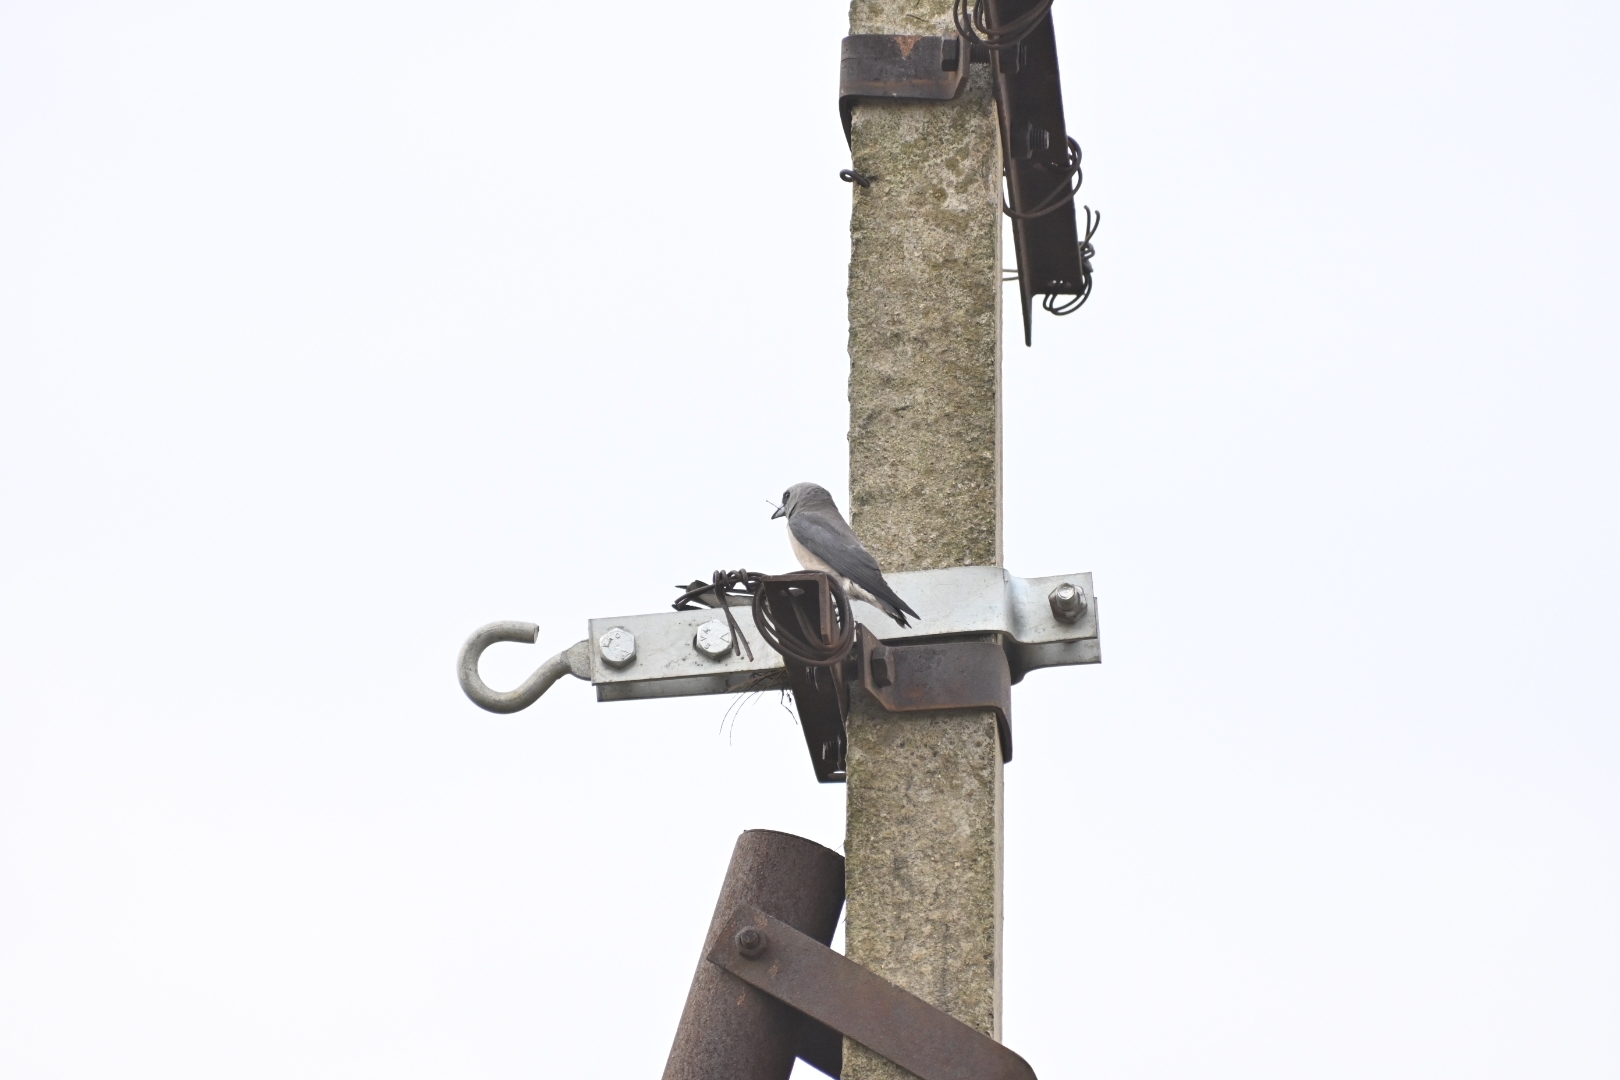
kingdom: Animalia
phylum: Chordata
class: Aves
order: Passeriformes
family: Artamidae
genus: Artamus
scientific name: Artamus fuscus
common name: Ashy woodswallow
